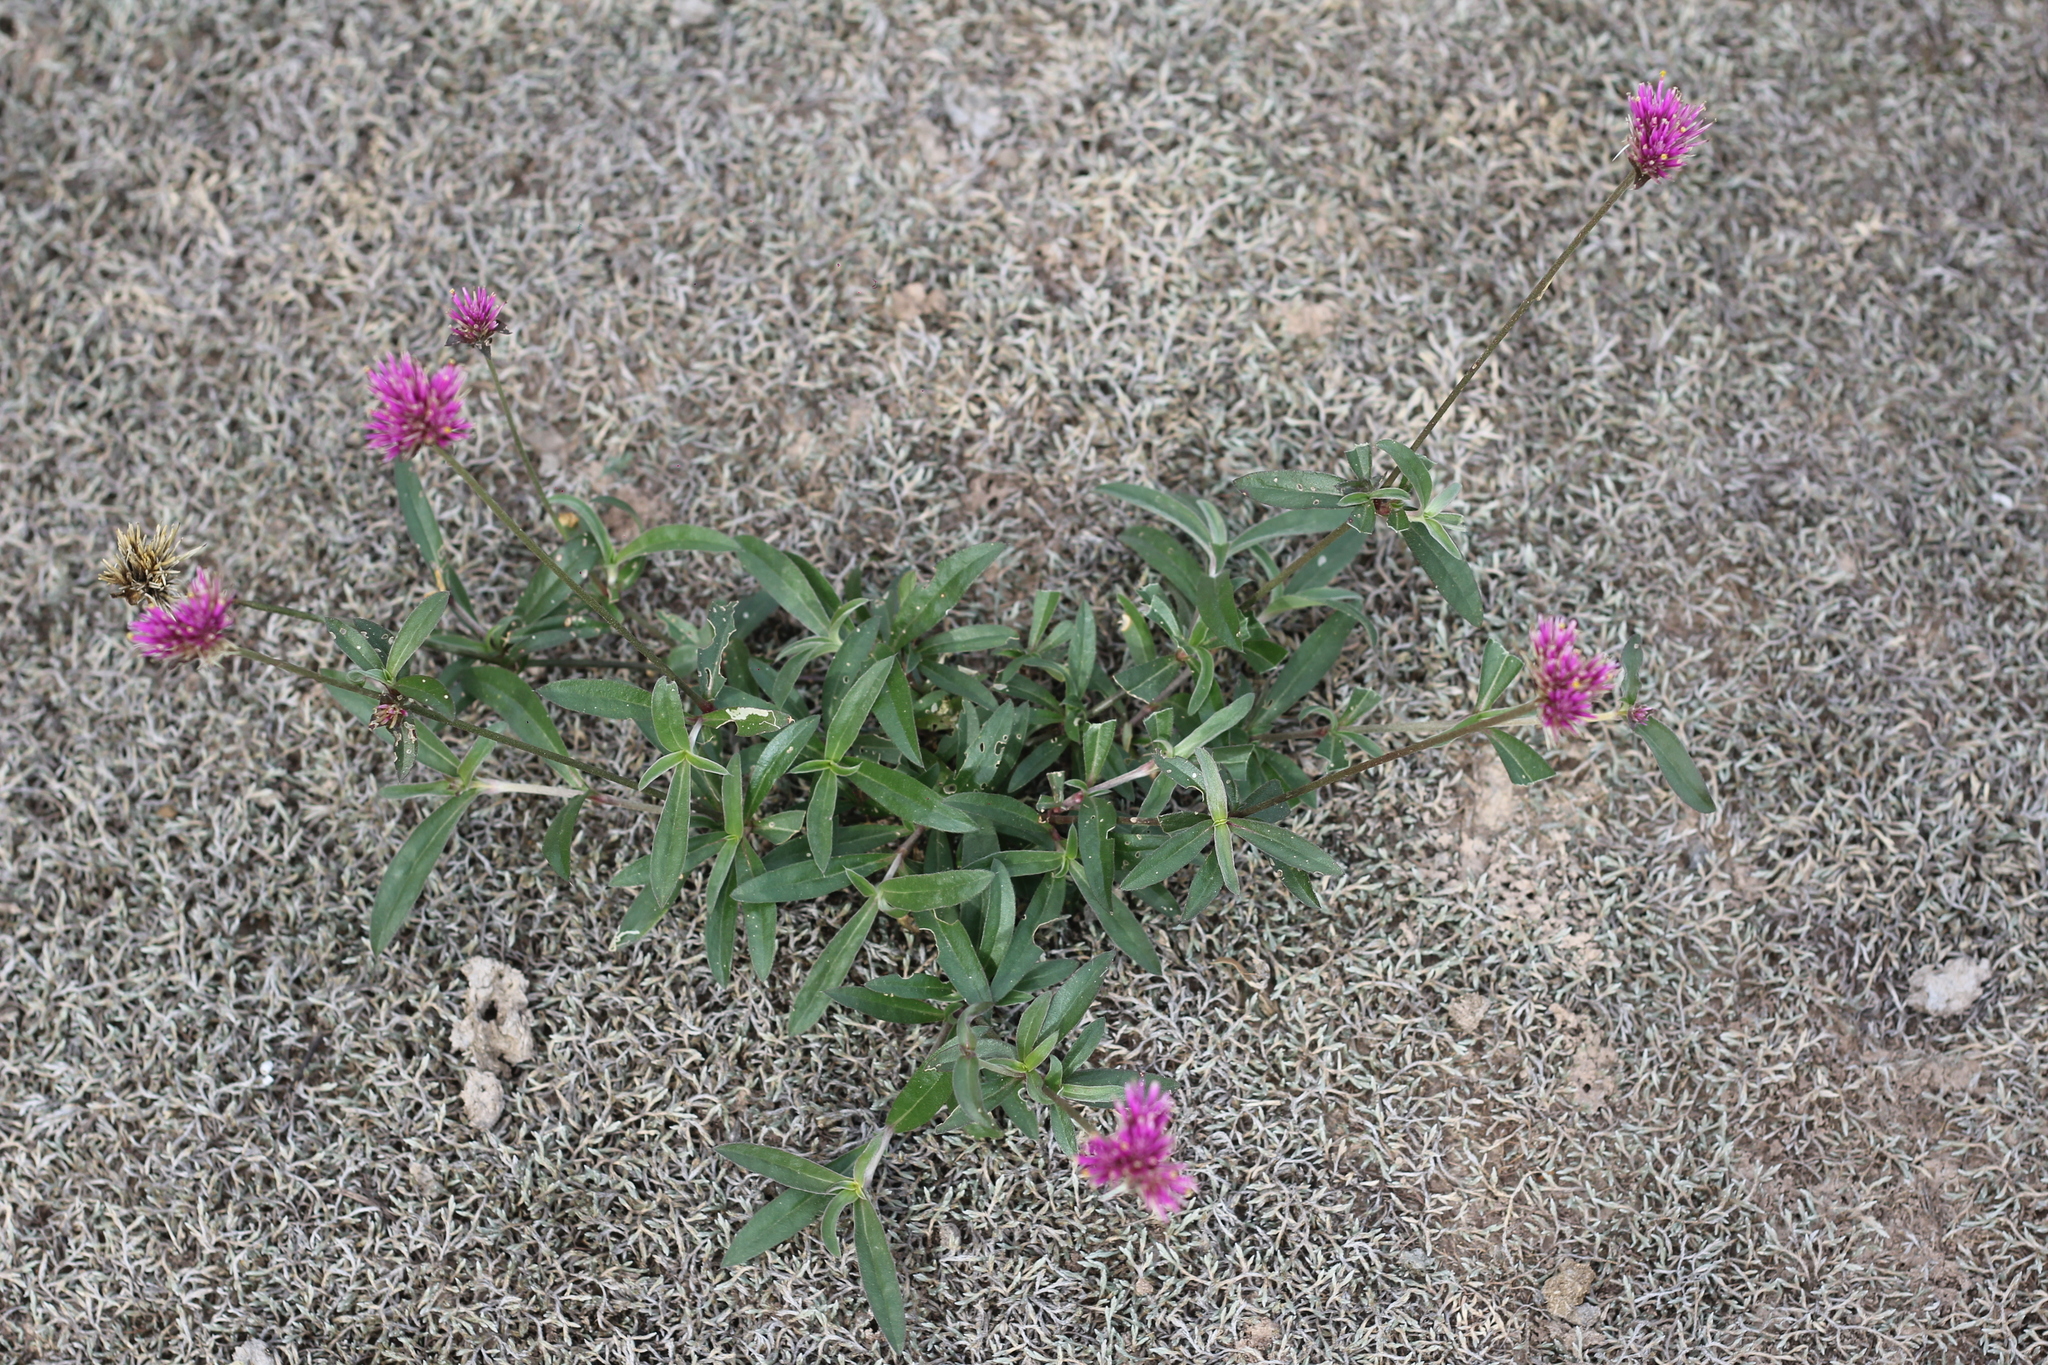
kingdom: Plantae
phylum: Tracheophyta
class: Magnoliopsida
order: Caryophyllales
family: Amaranthaceae
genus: Gomphrena
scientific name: Gomphrena pulchella
